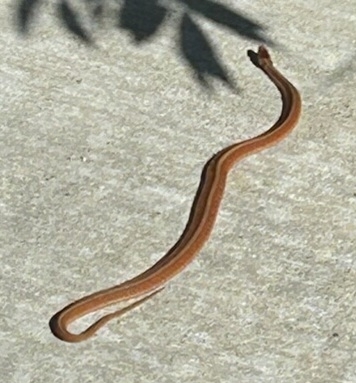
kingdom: Animalia
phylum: Chordata
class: Squamata
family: Colubridae
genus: Storeria
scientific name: Storeria dekayi
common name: (dekay’s) brown snake
